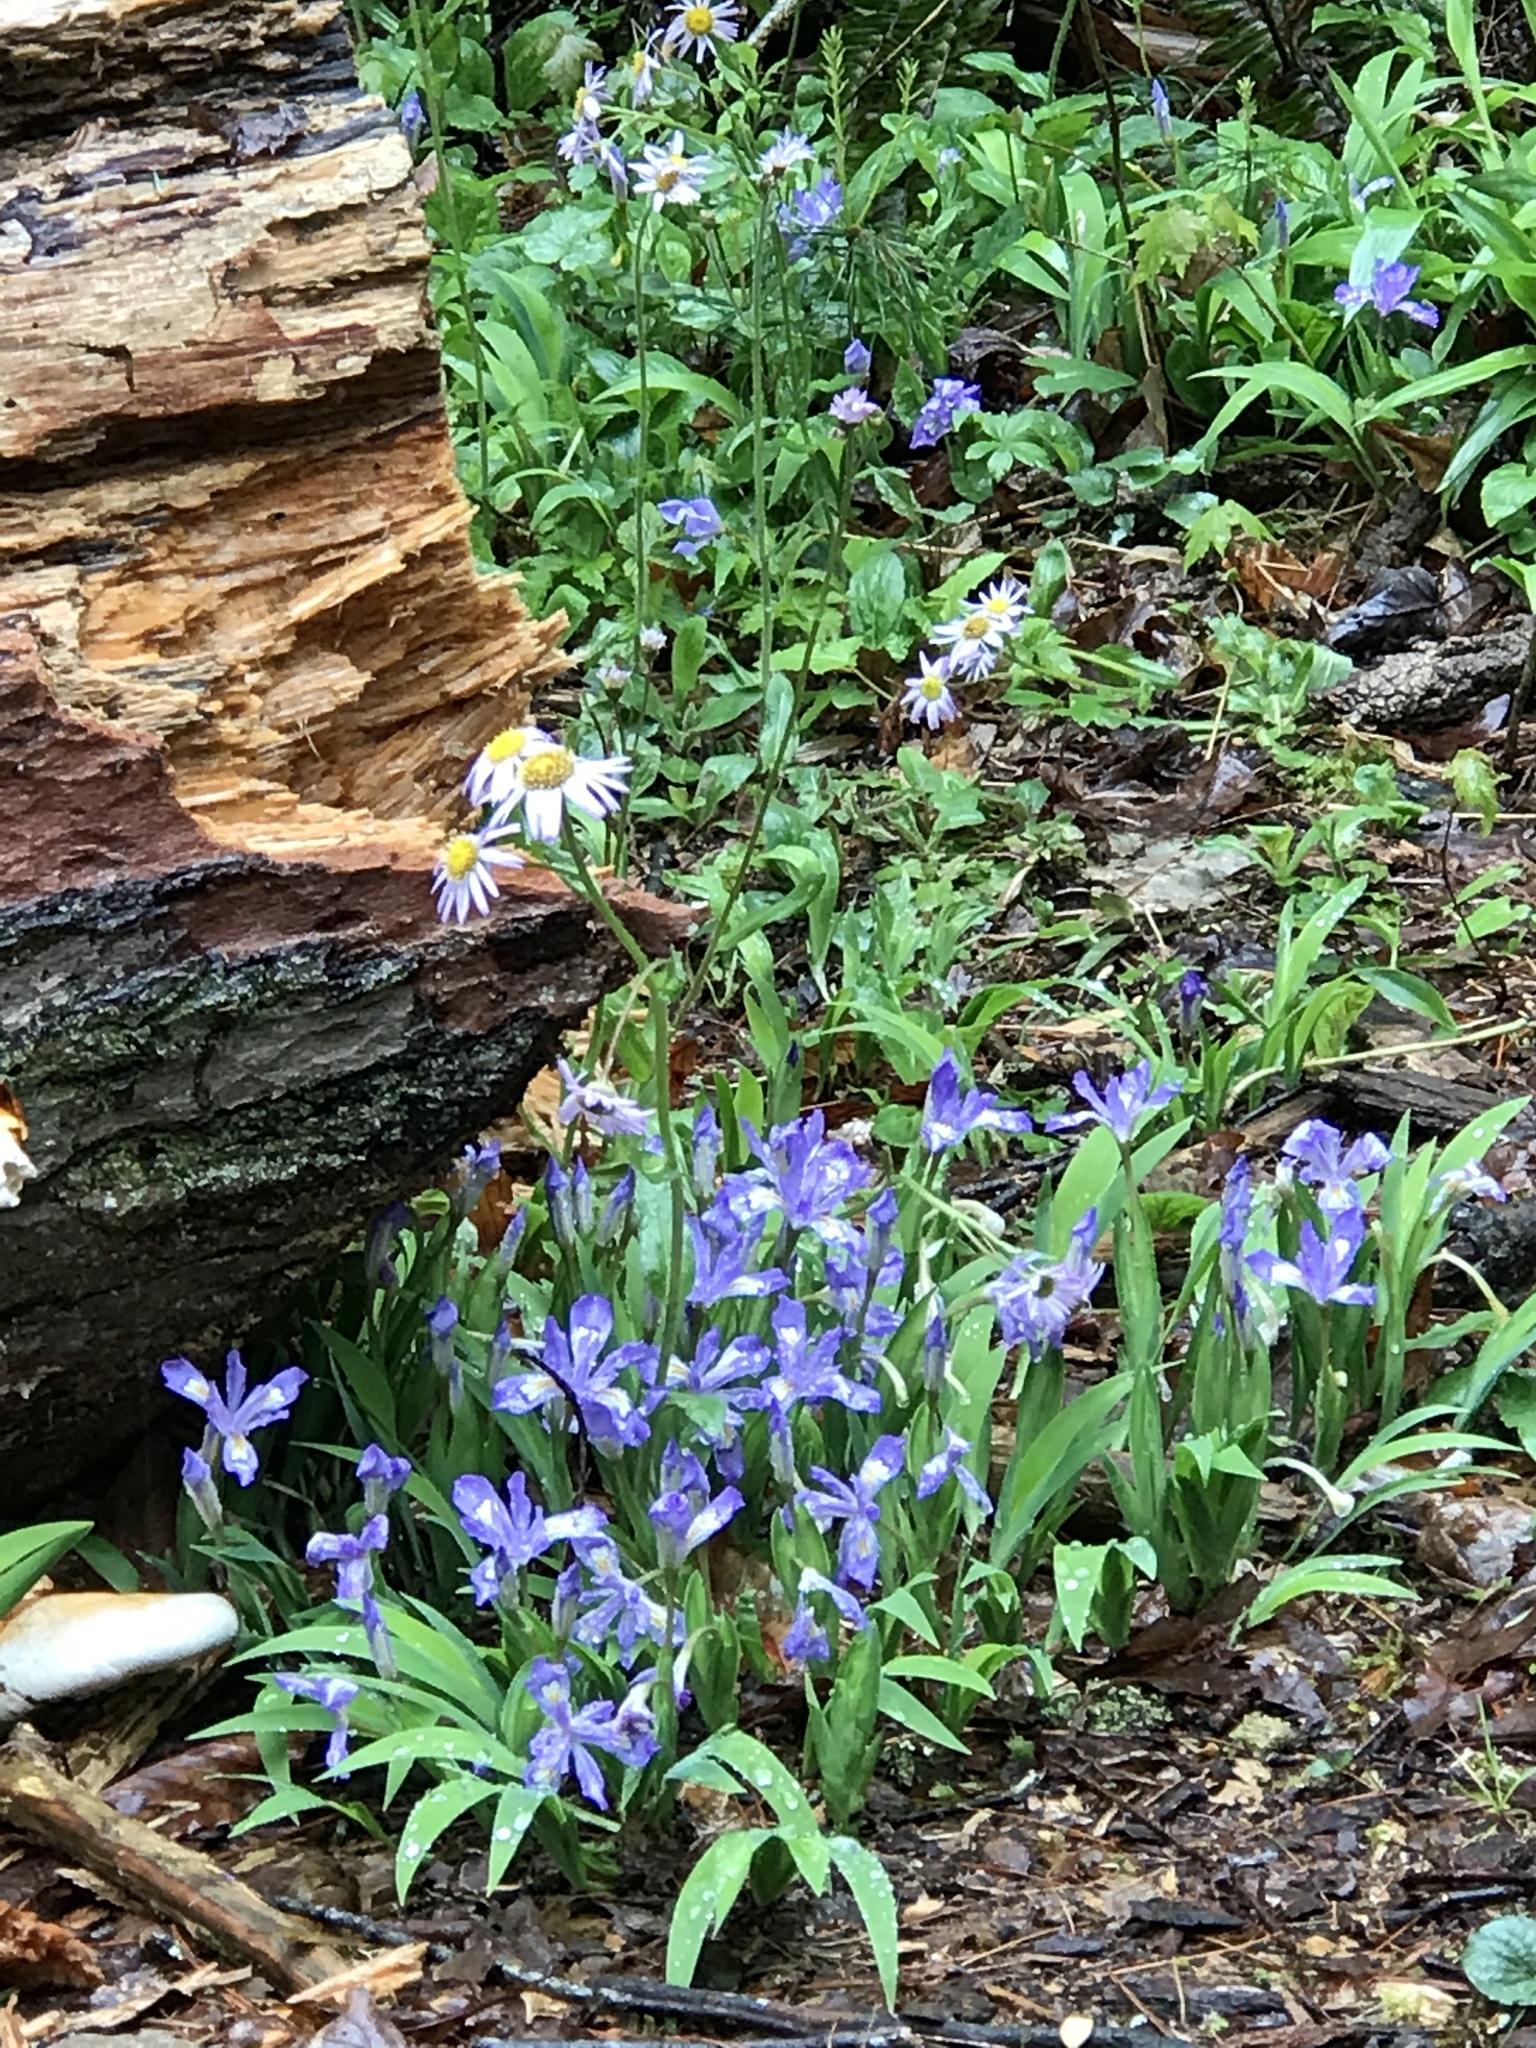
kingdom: Plantae
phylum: Tracheophyta
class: Liliopsida
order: Asparagales
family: Iridaceae
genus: Iris
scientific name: Iris cristata
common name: Crested iris
